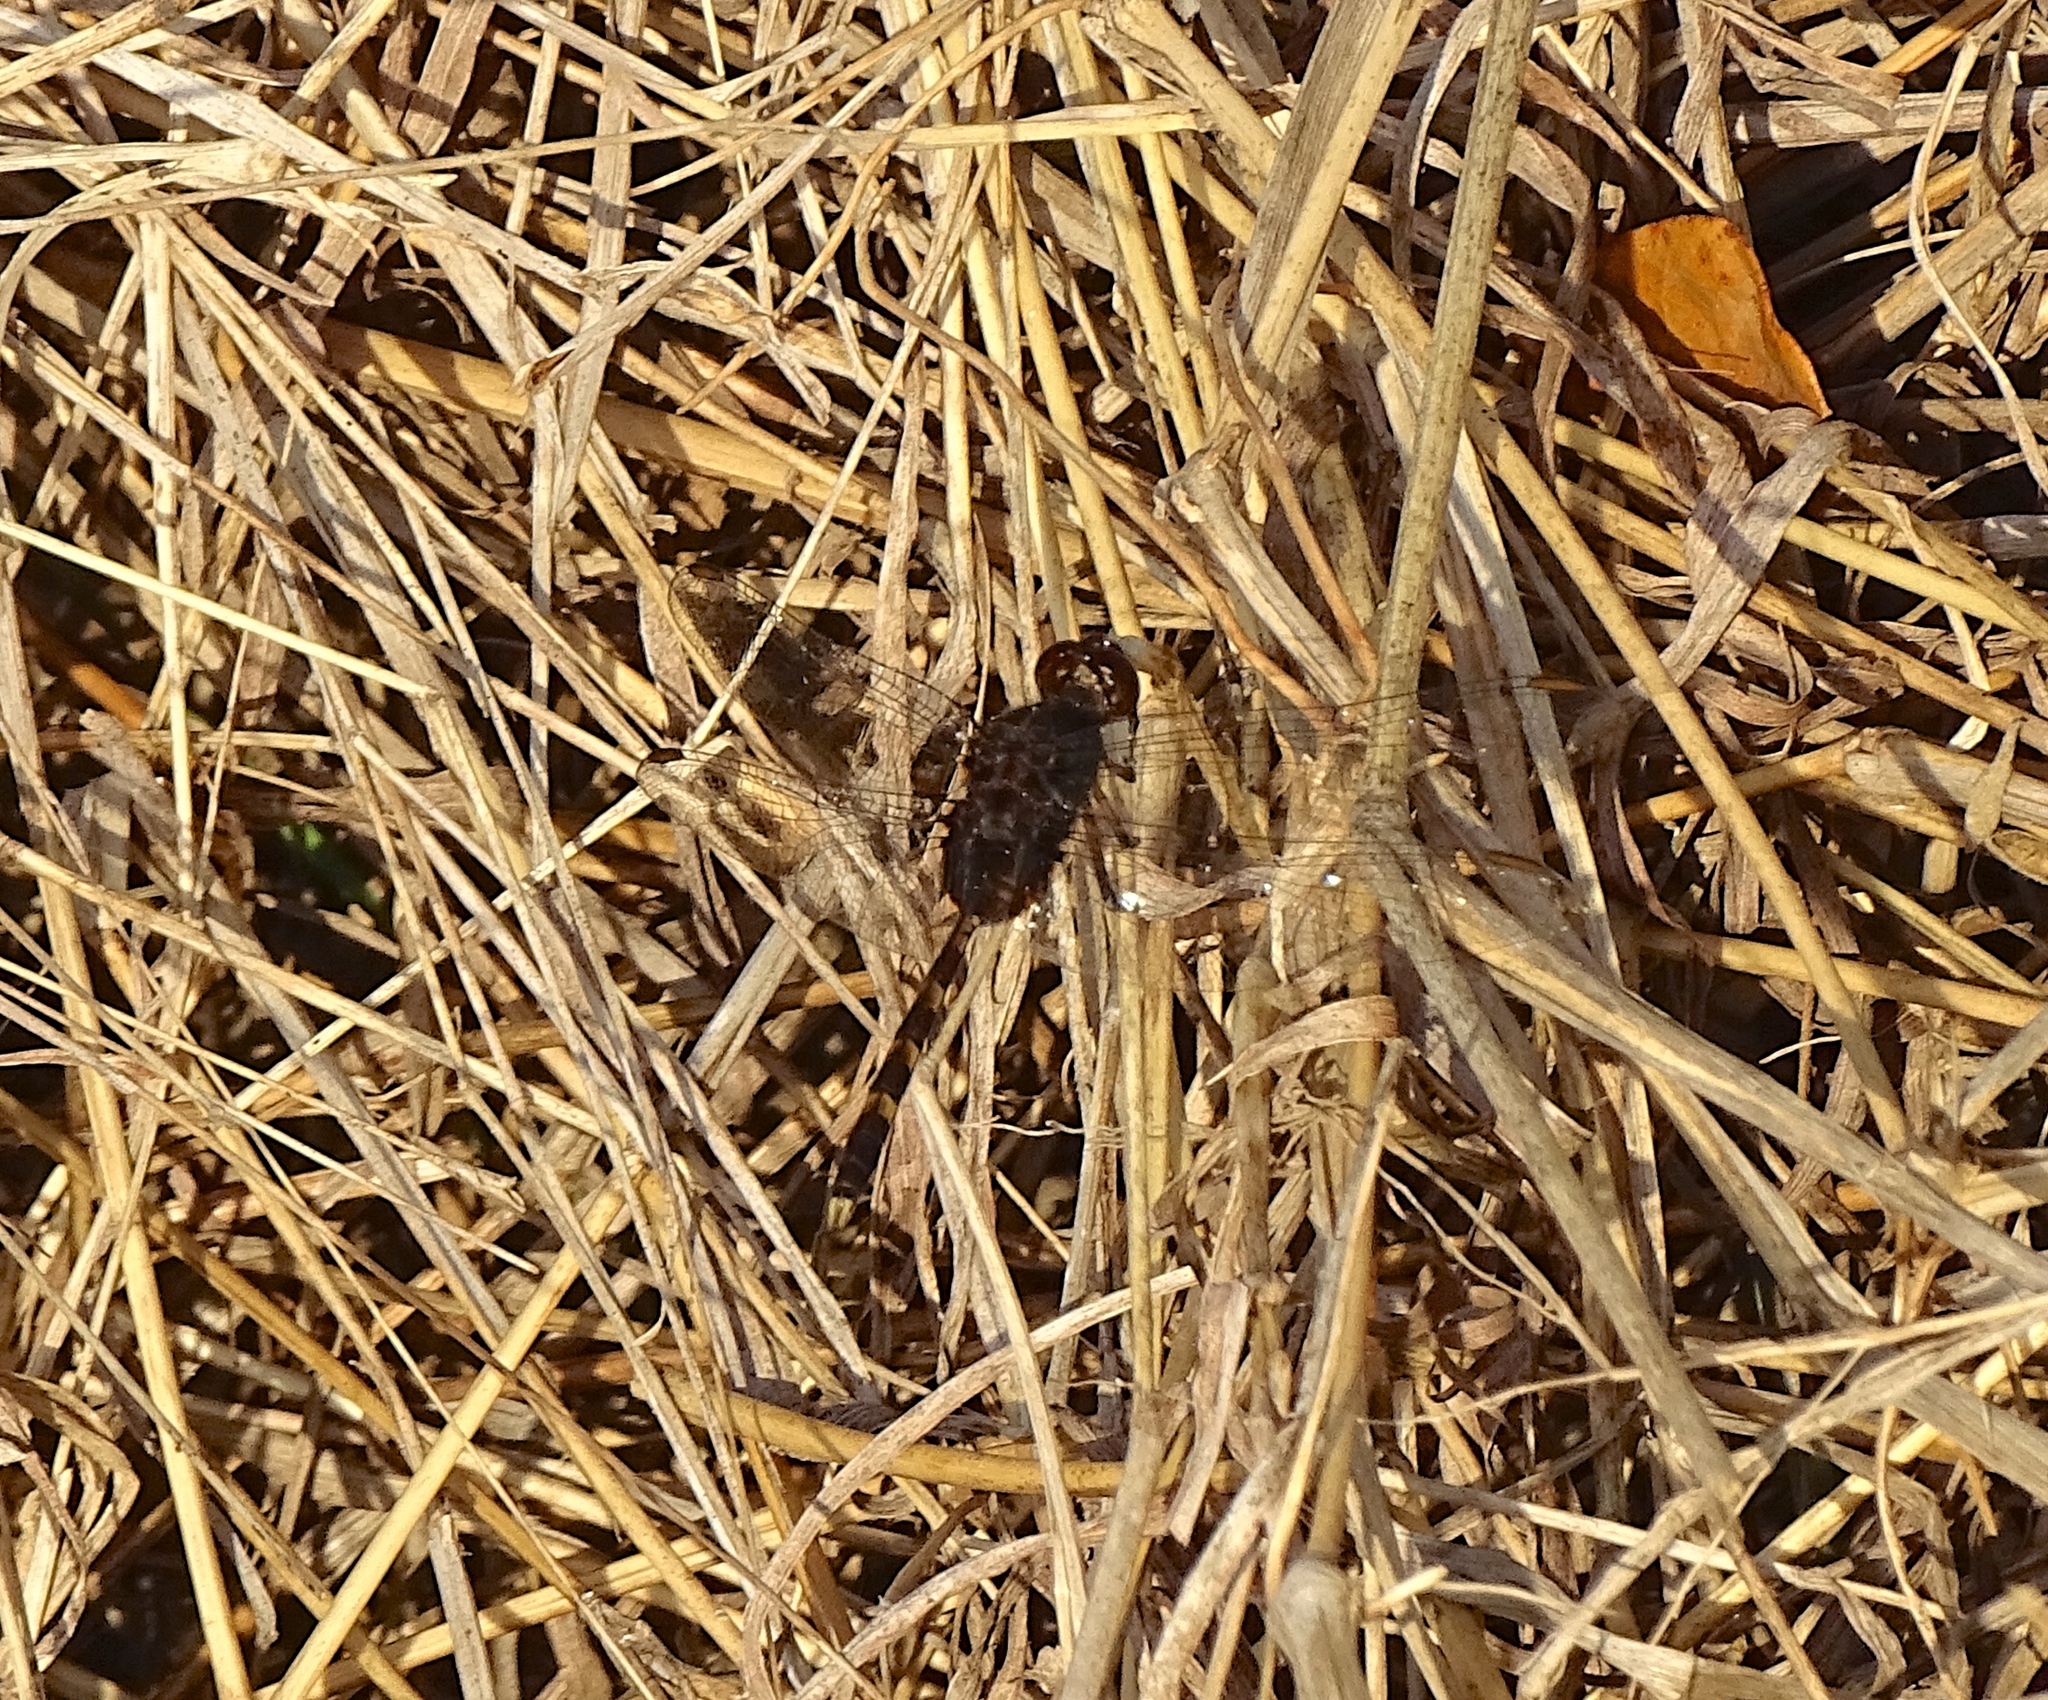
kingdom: Animalia
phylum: Arthropoda
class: Insecta
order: Odonata
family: Libellulidae
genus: Erythemis
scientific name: Erythemis plebeja
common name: Pin-tailed pondhawk
